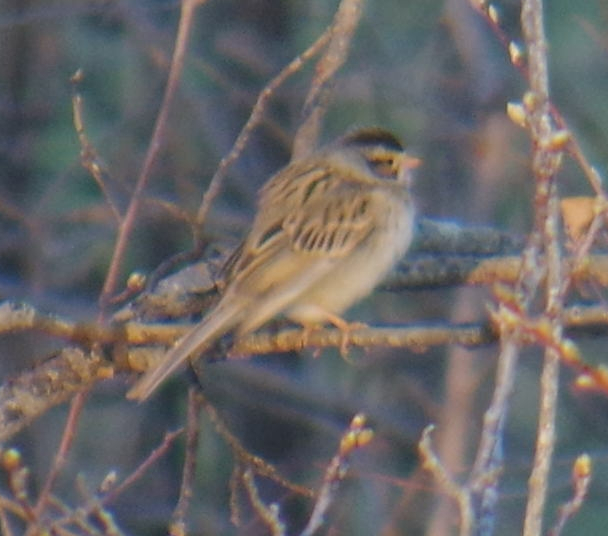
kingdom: Animalia
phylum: Chordata
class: Aves
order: Passeriformes
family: Passerellidae
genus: Spizella
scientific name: Spizella pallida
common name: Clay-colored sparrow
